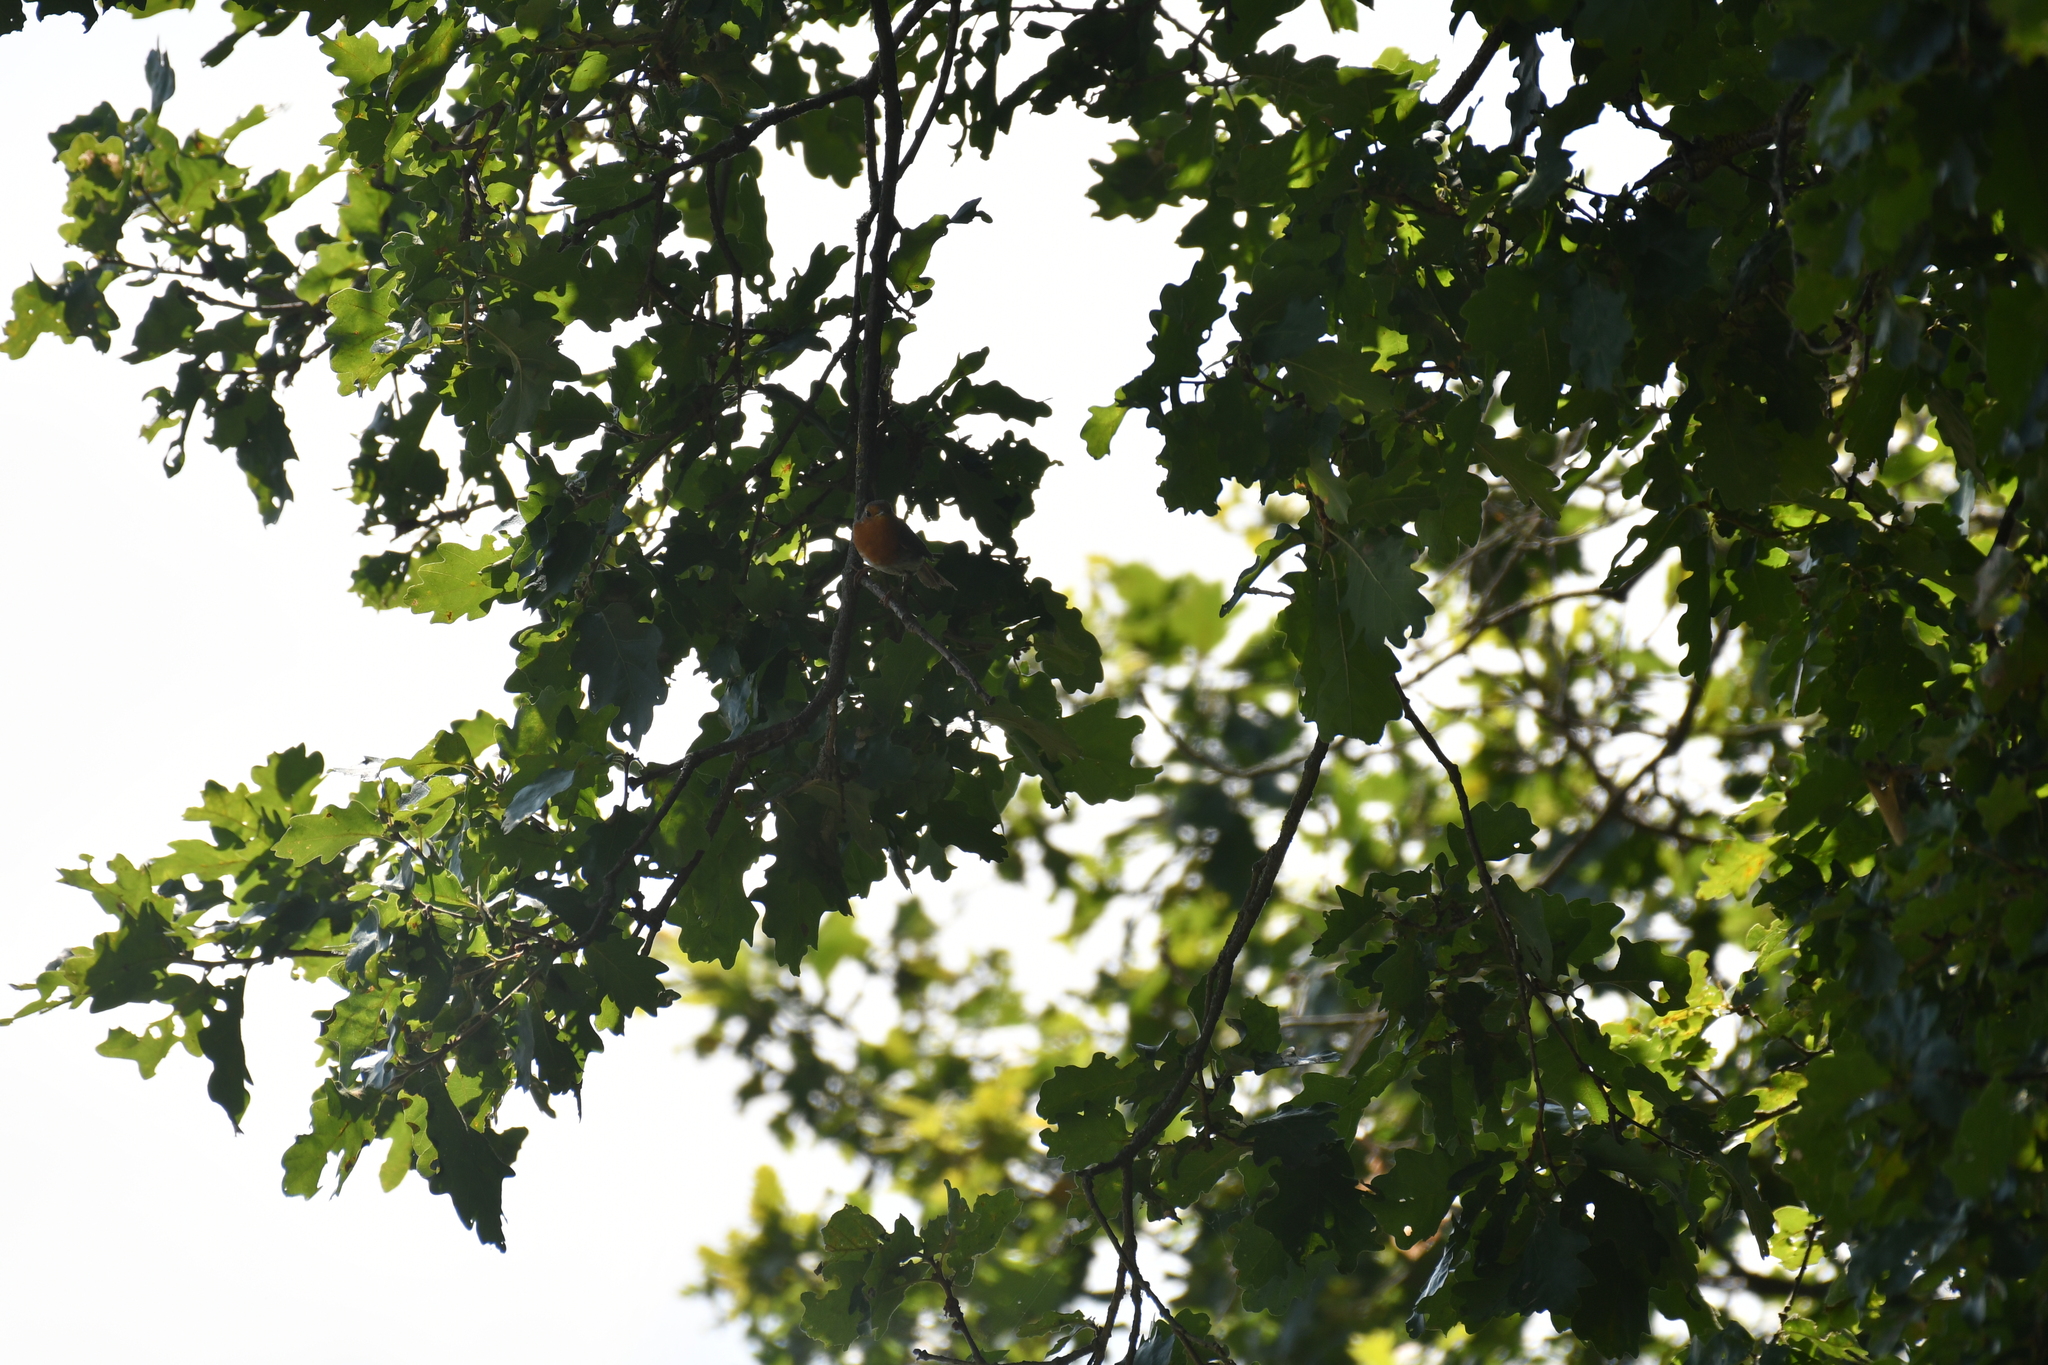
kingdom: Animalia
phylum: Chordata
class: Aves
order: Passeriformes
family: Muscicapidae
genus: Erithacus
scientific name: Erithacus rubecula
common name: European robin
